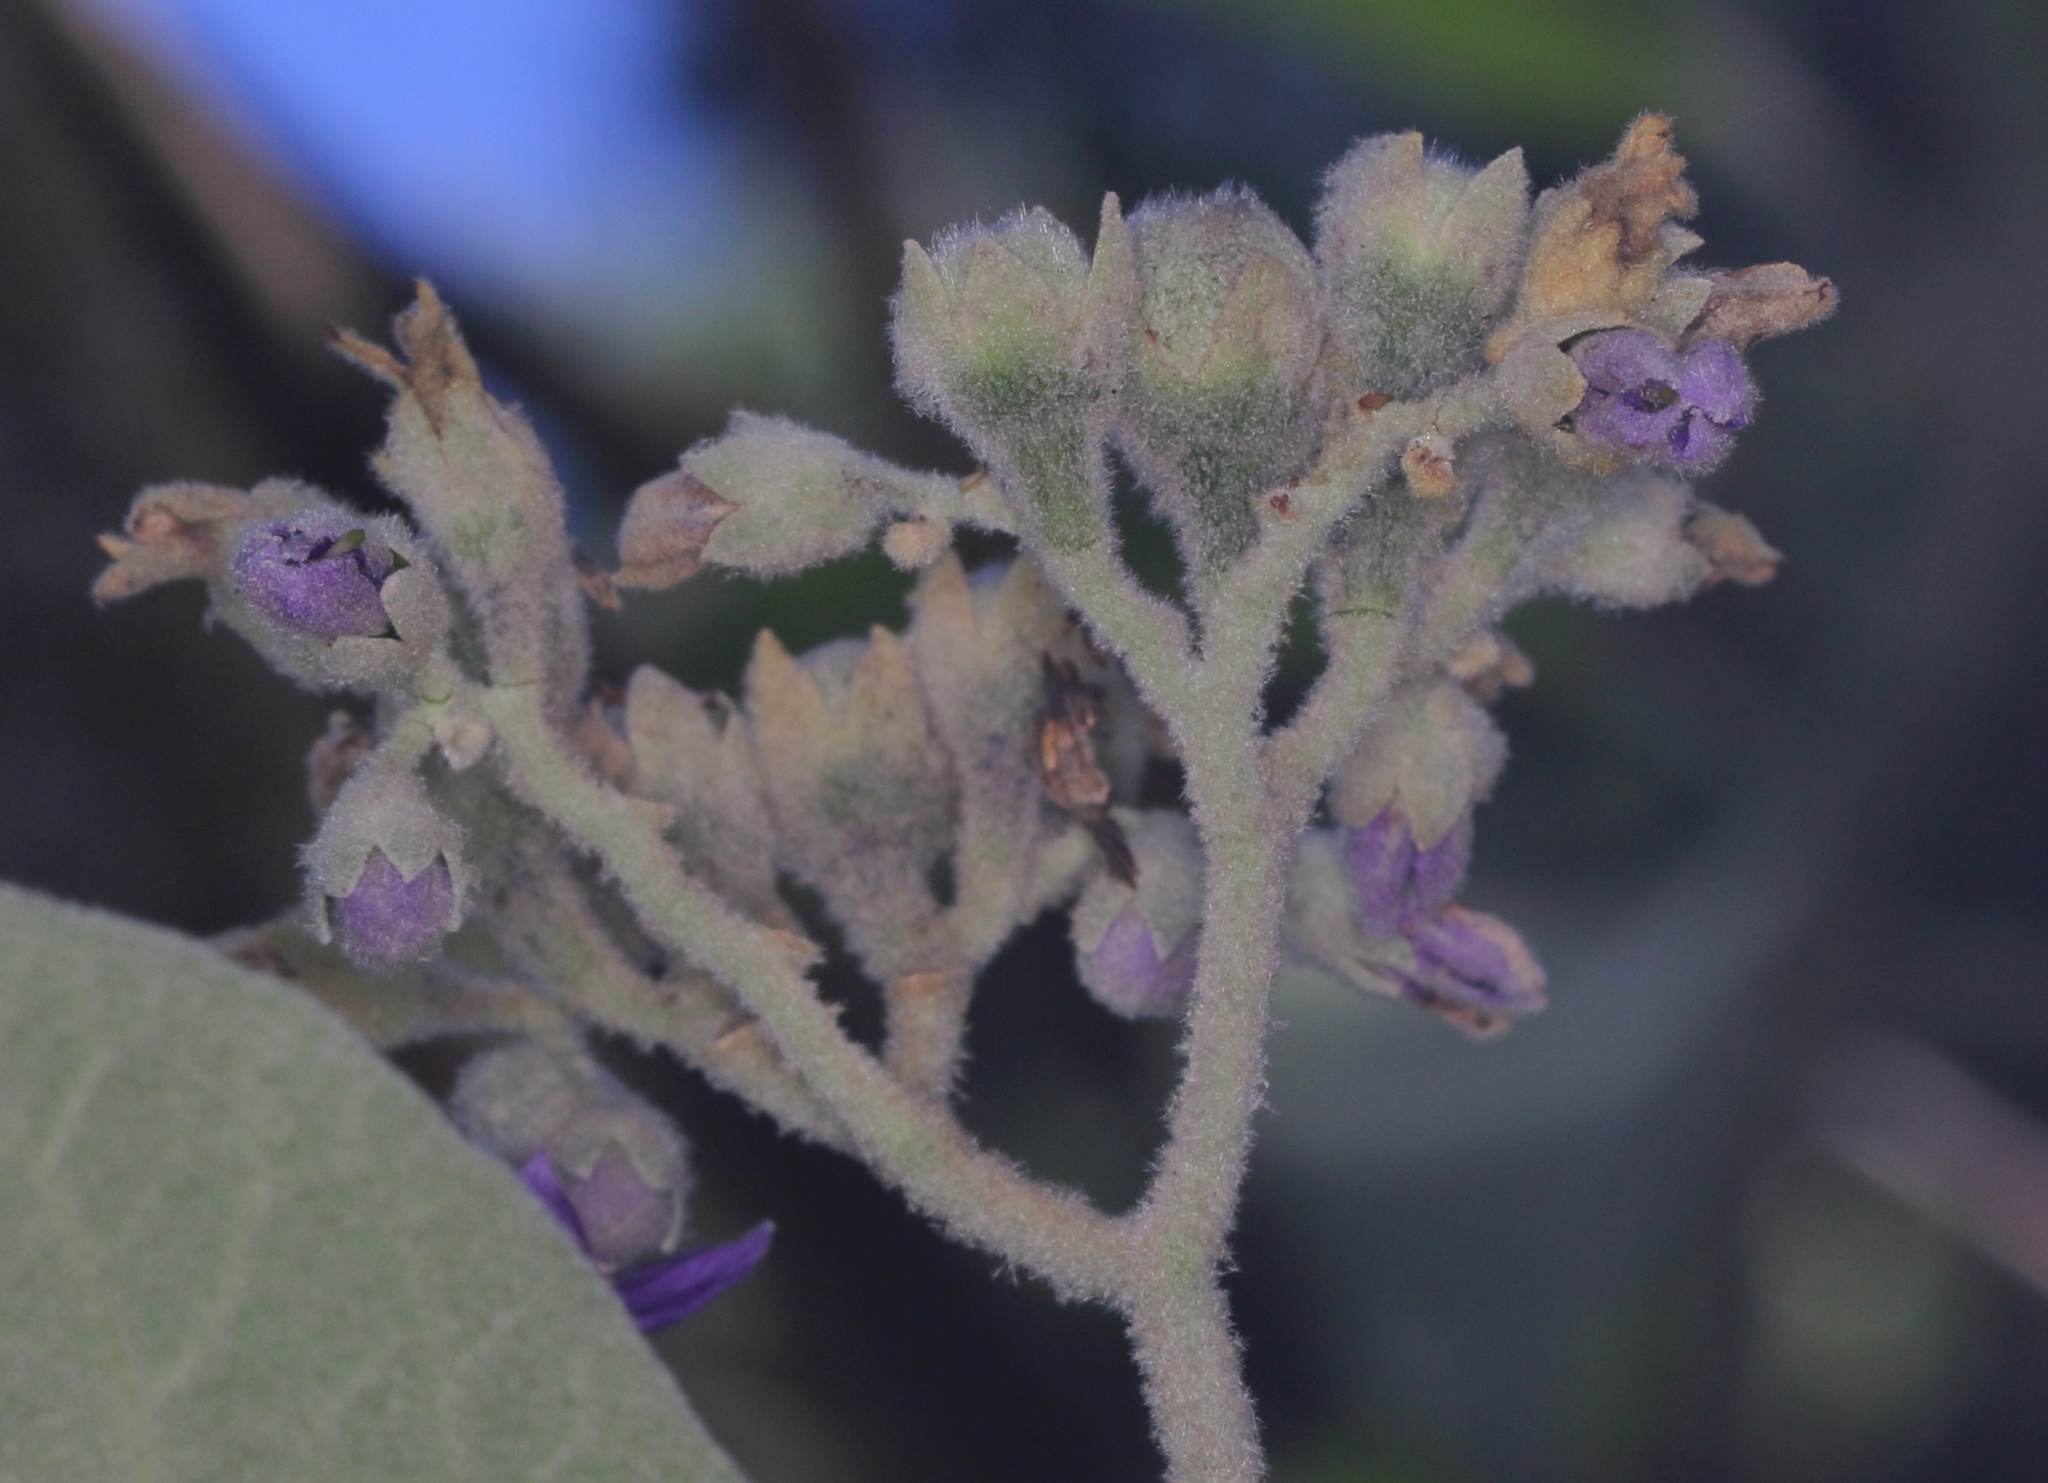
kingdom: Plantae
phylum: Tracheophyta
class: Magnoliopsida
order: Solanales
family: Solanaceae
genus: Solanum
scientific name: Solanum mauritianum
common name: Earleaf nightshade
